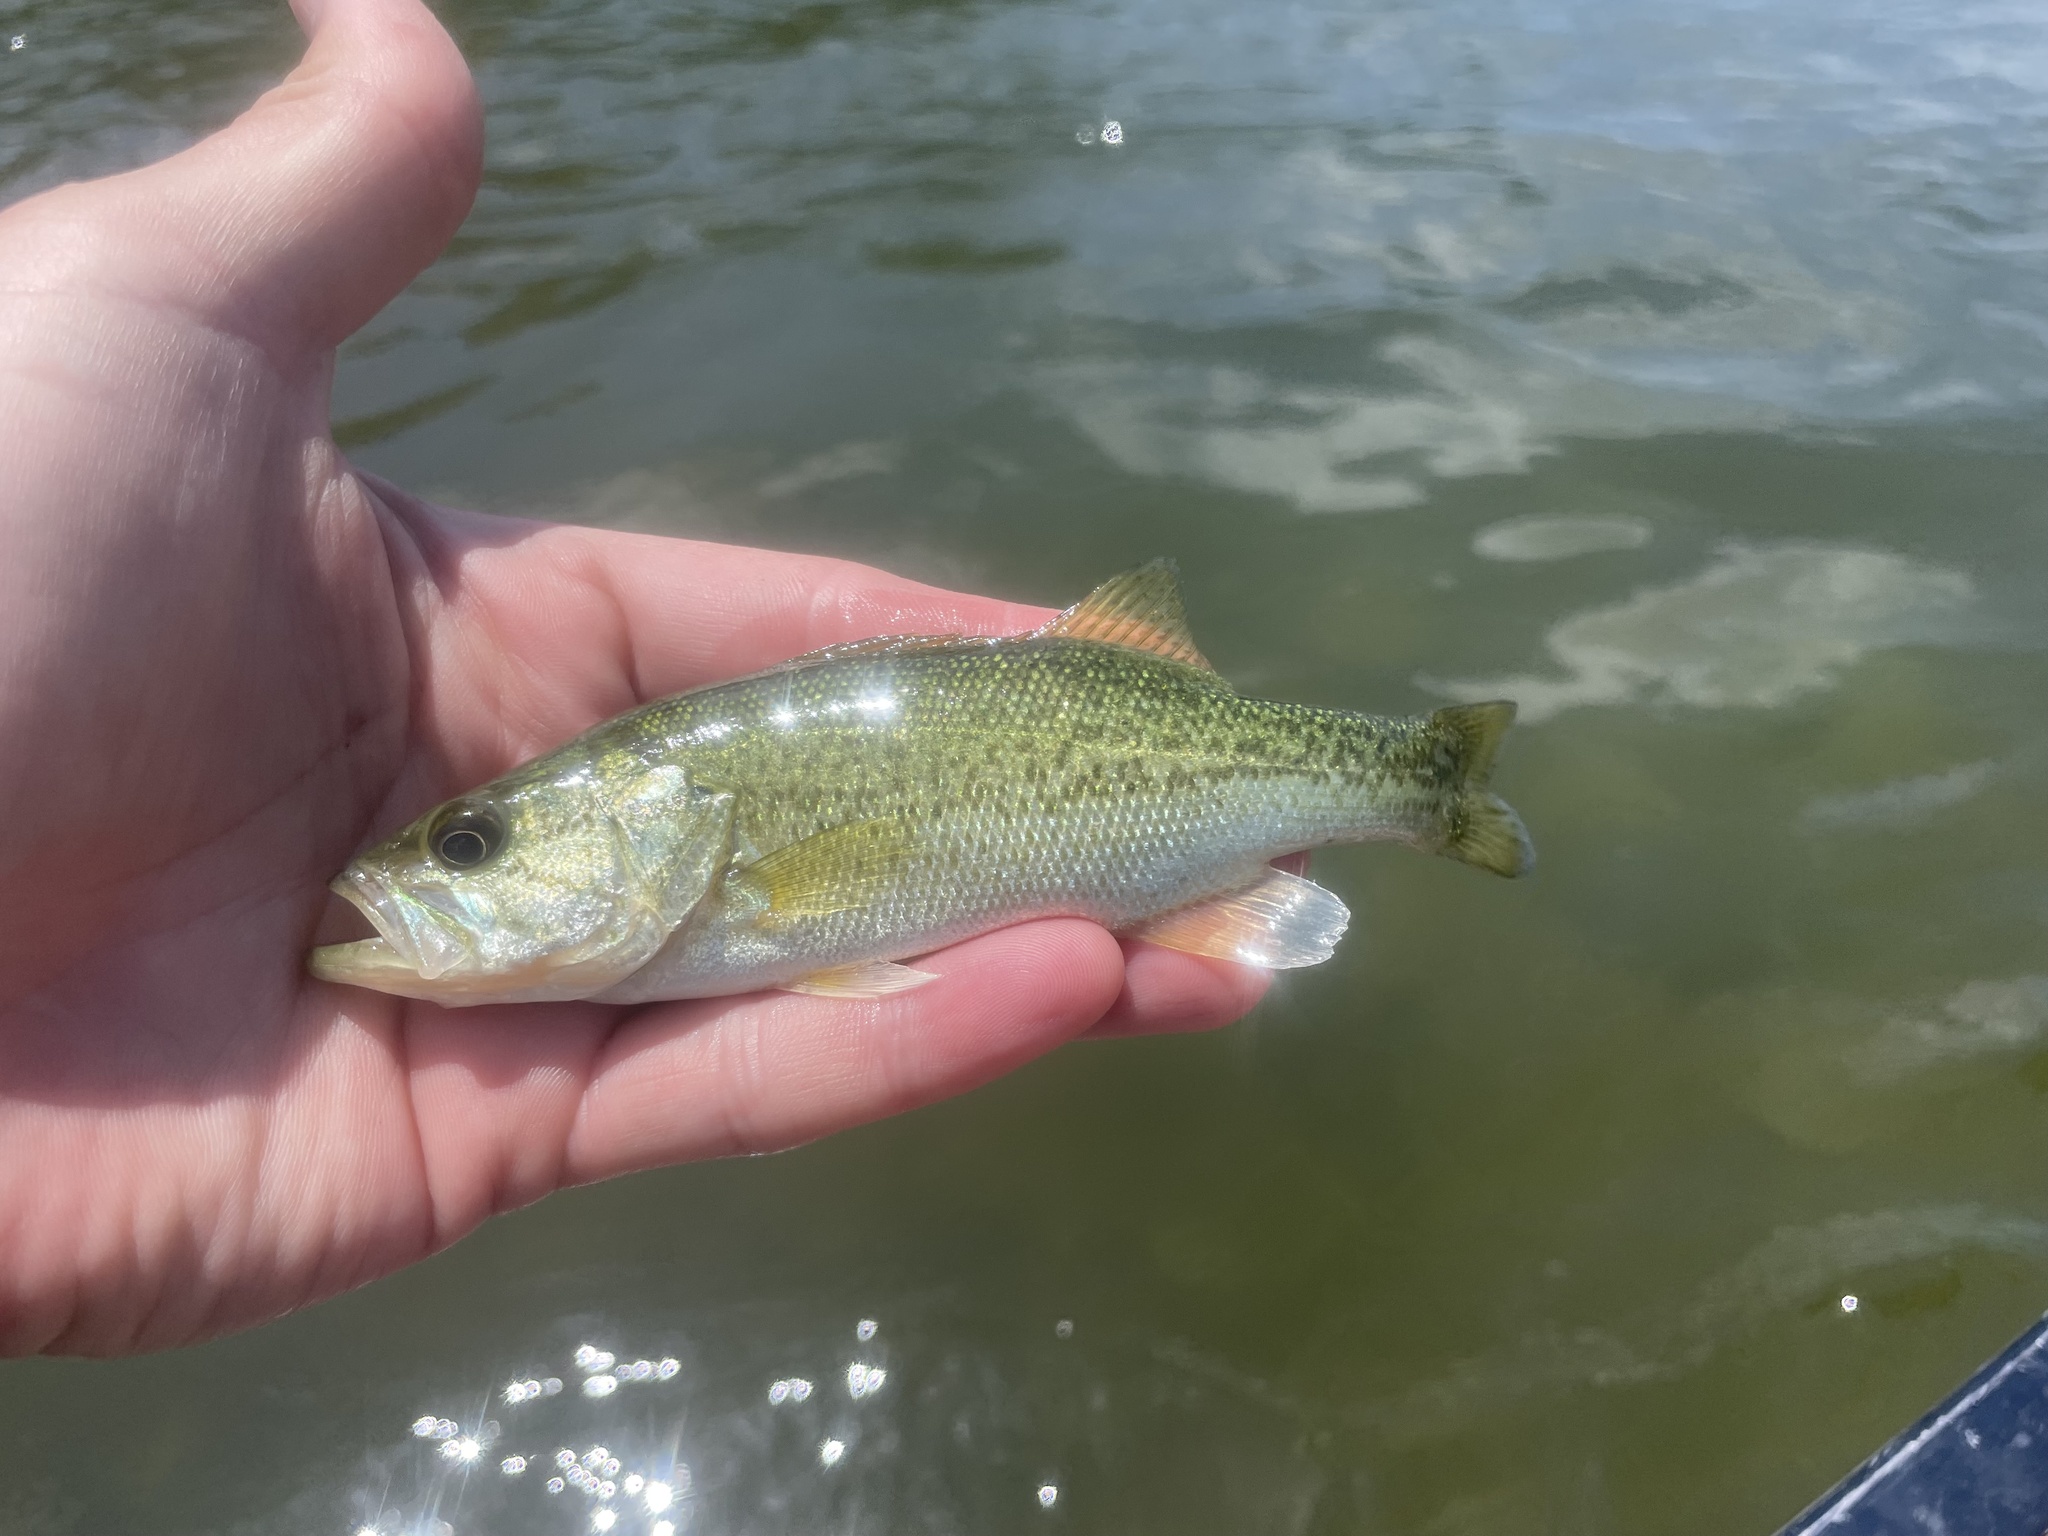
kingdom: Animalia
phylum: Chordata
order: Perciformes
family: Centrarchidae
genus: Micropterus
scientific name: Micropterus
